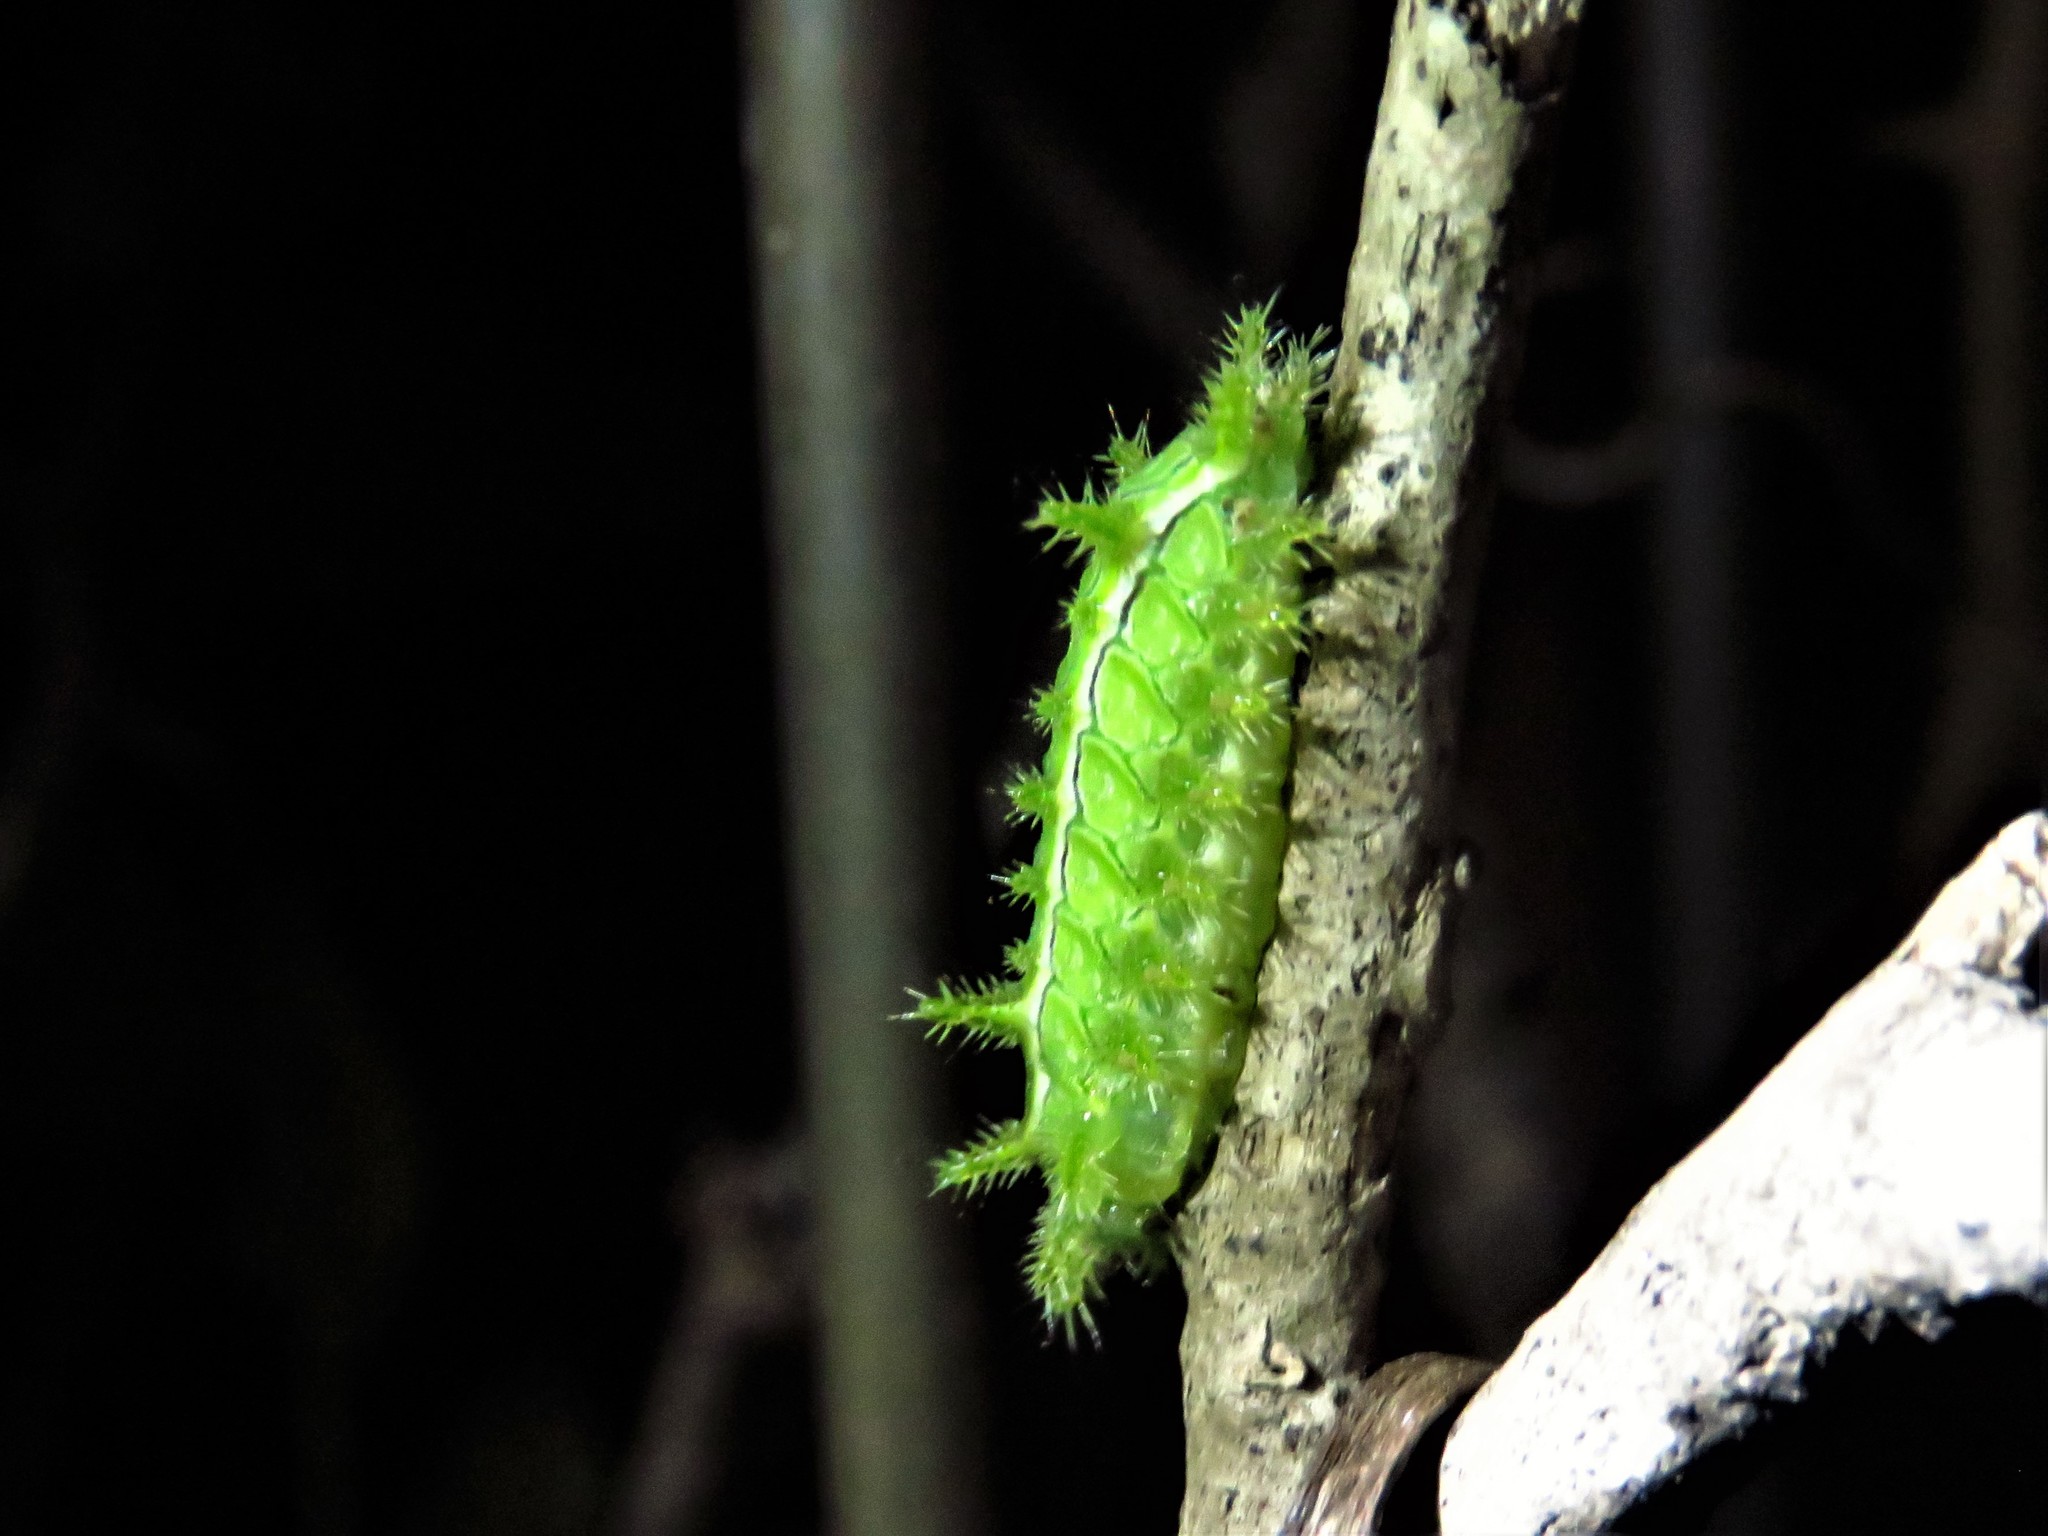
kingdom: Animalia
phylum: Arthropoda
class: Insecta
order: Lepidoptera
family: Limacodidae
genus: Euclea
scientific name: Euclea incisa
